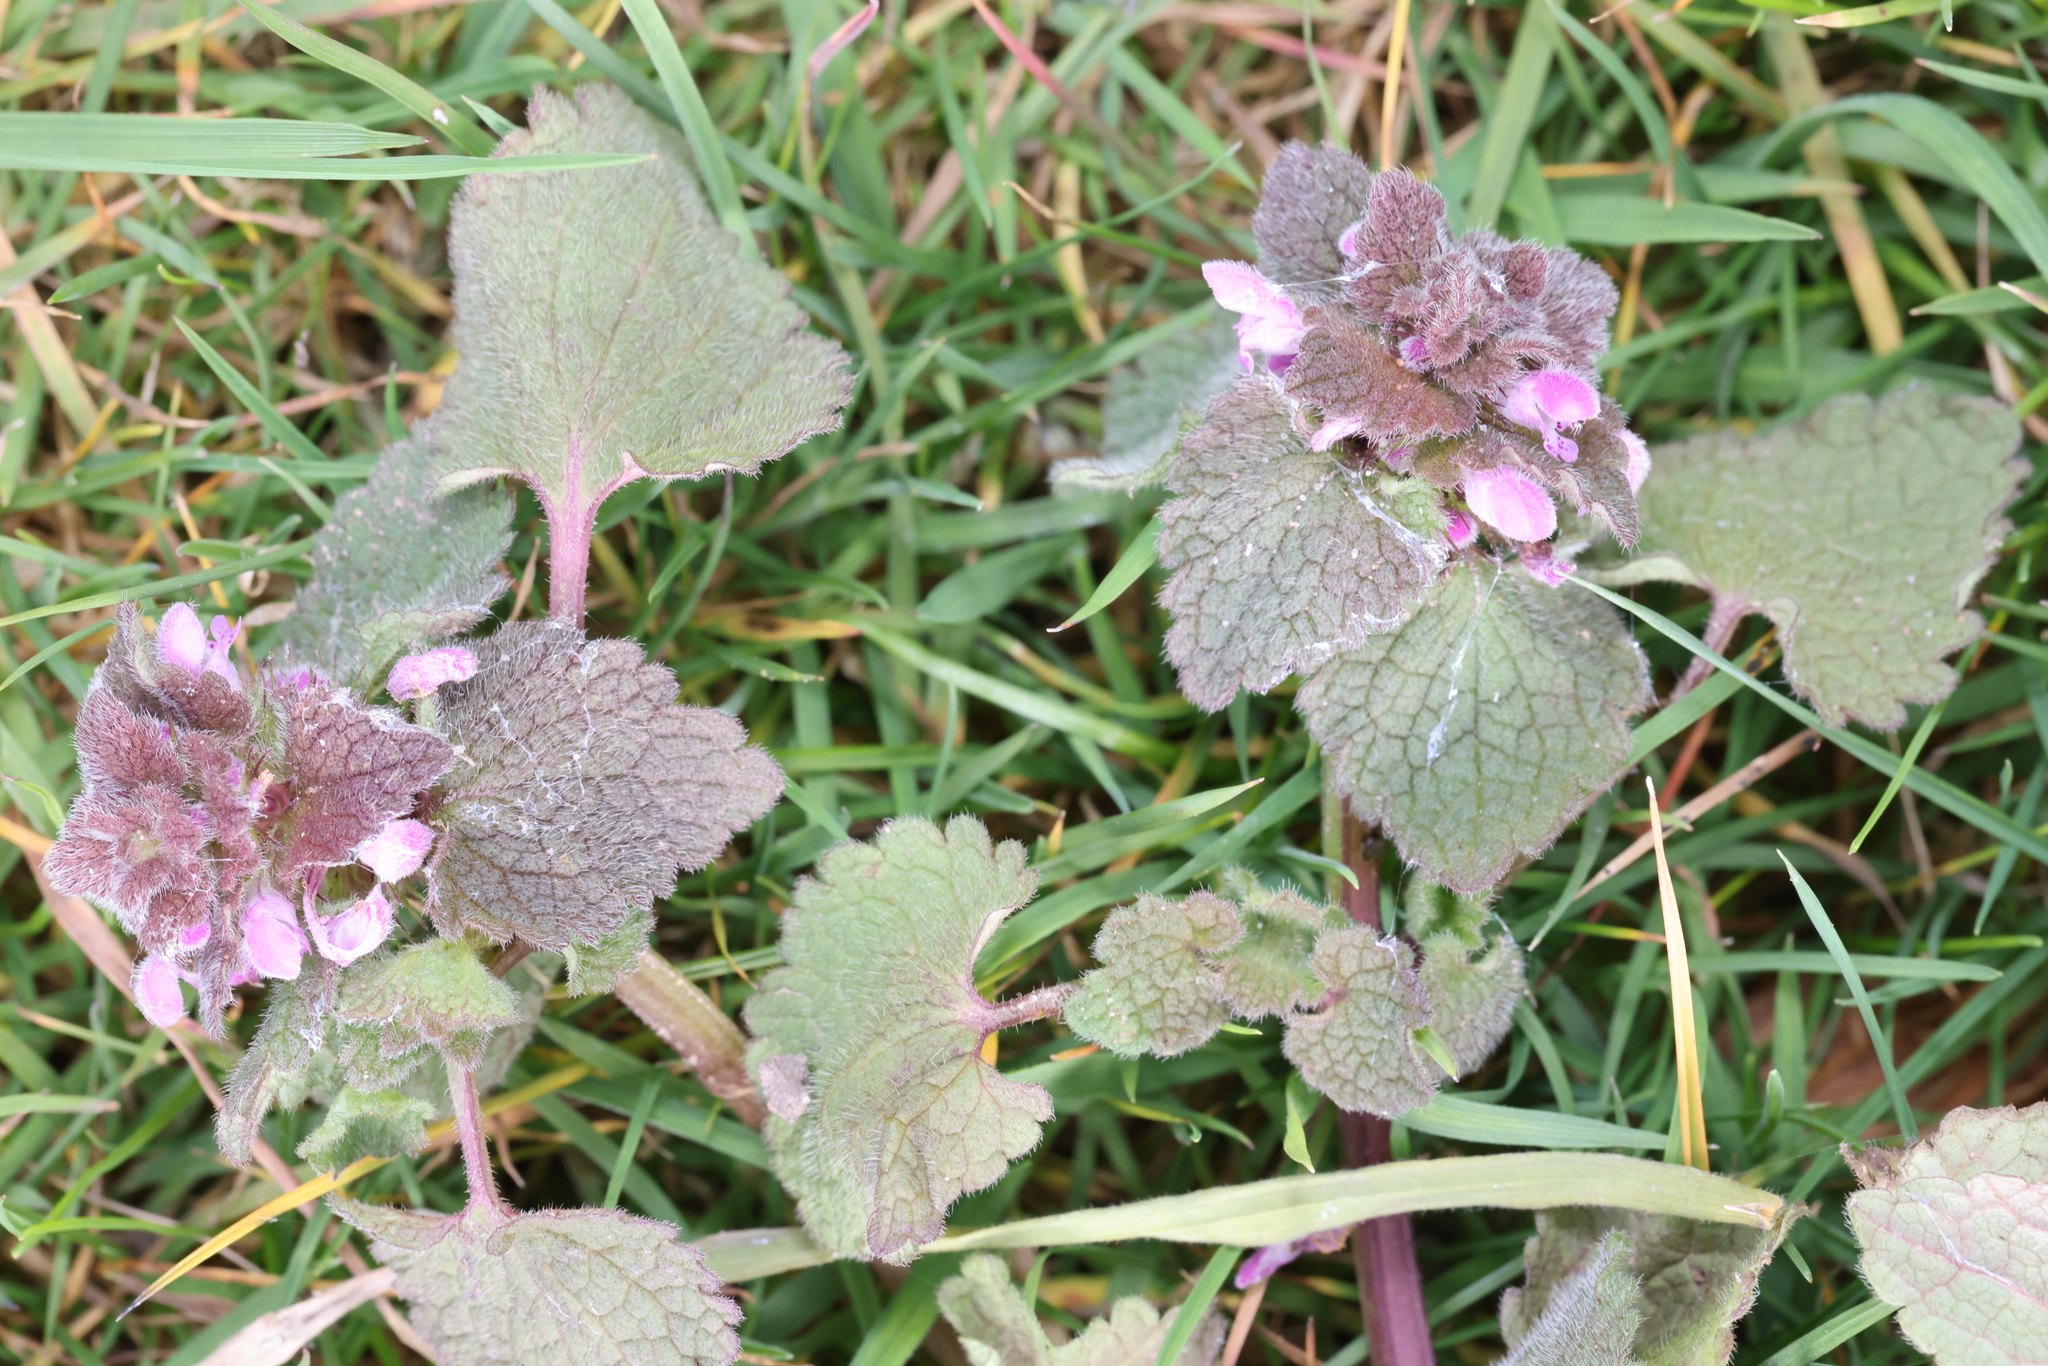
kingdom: Plantae
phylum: Tracheophyta
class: Magnoliopsida
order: Lamiales
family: Lamiaceae
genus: Lamium
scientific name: Lamium purpureum
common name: Red dead-nettle
